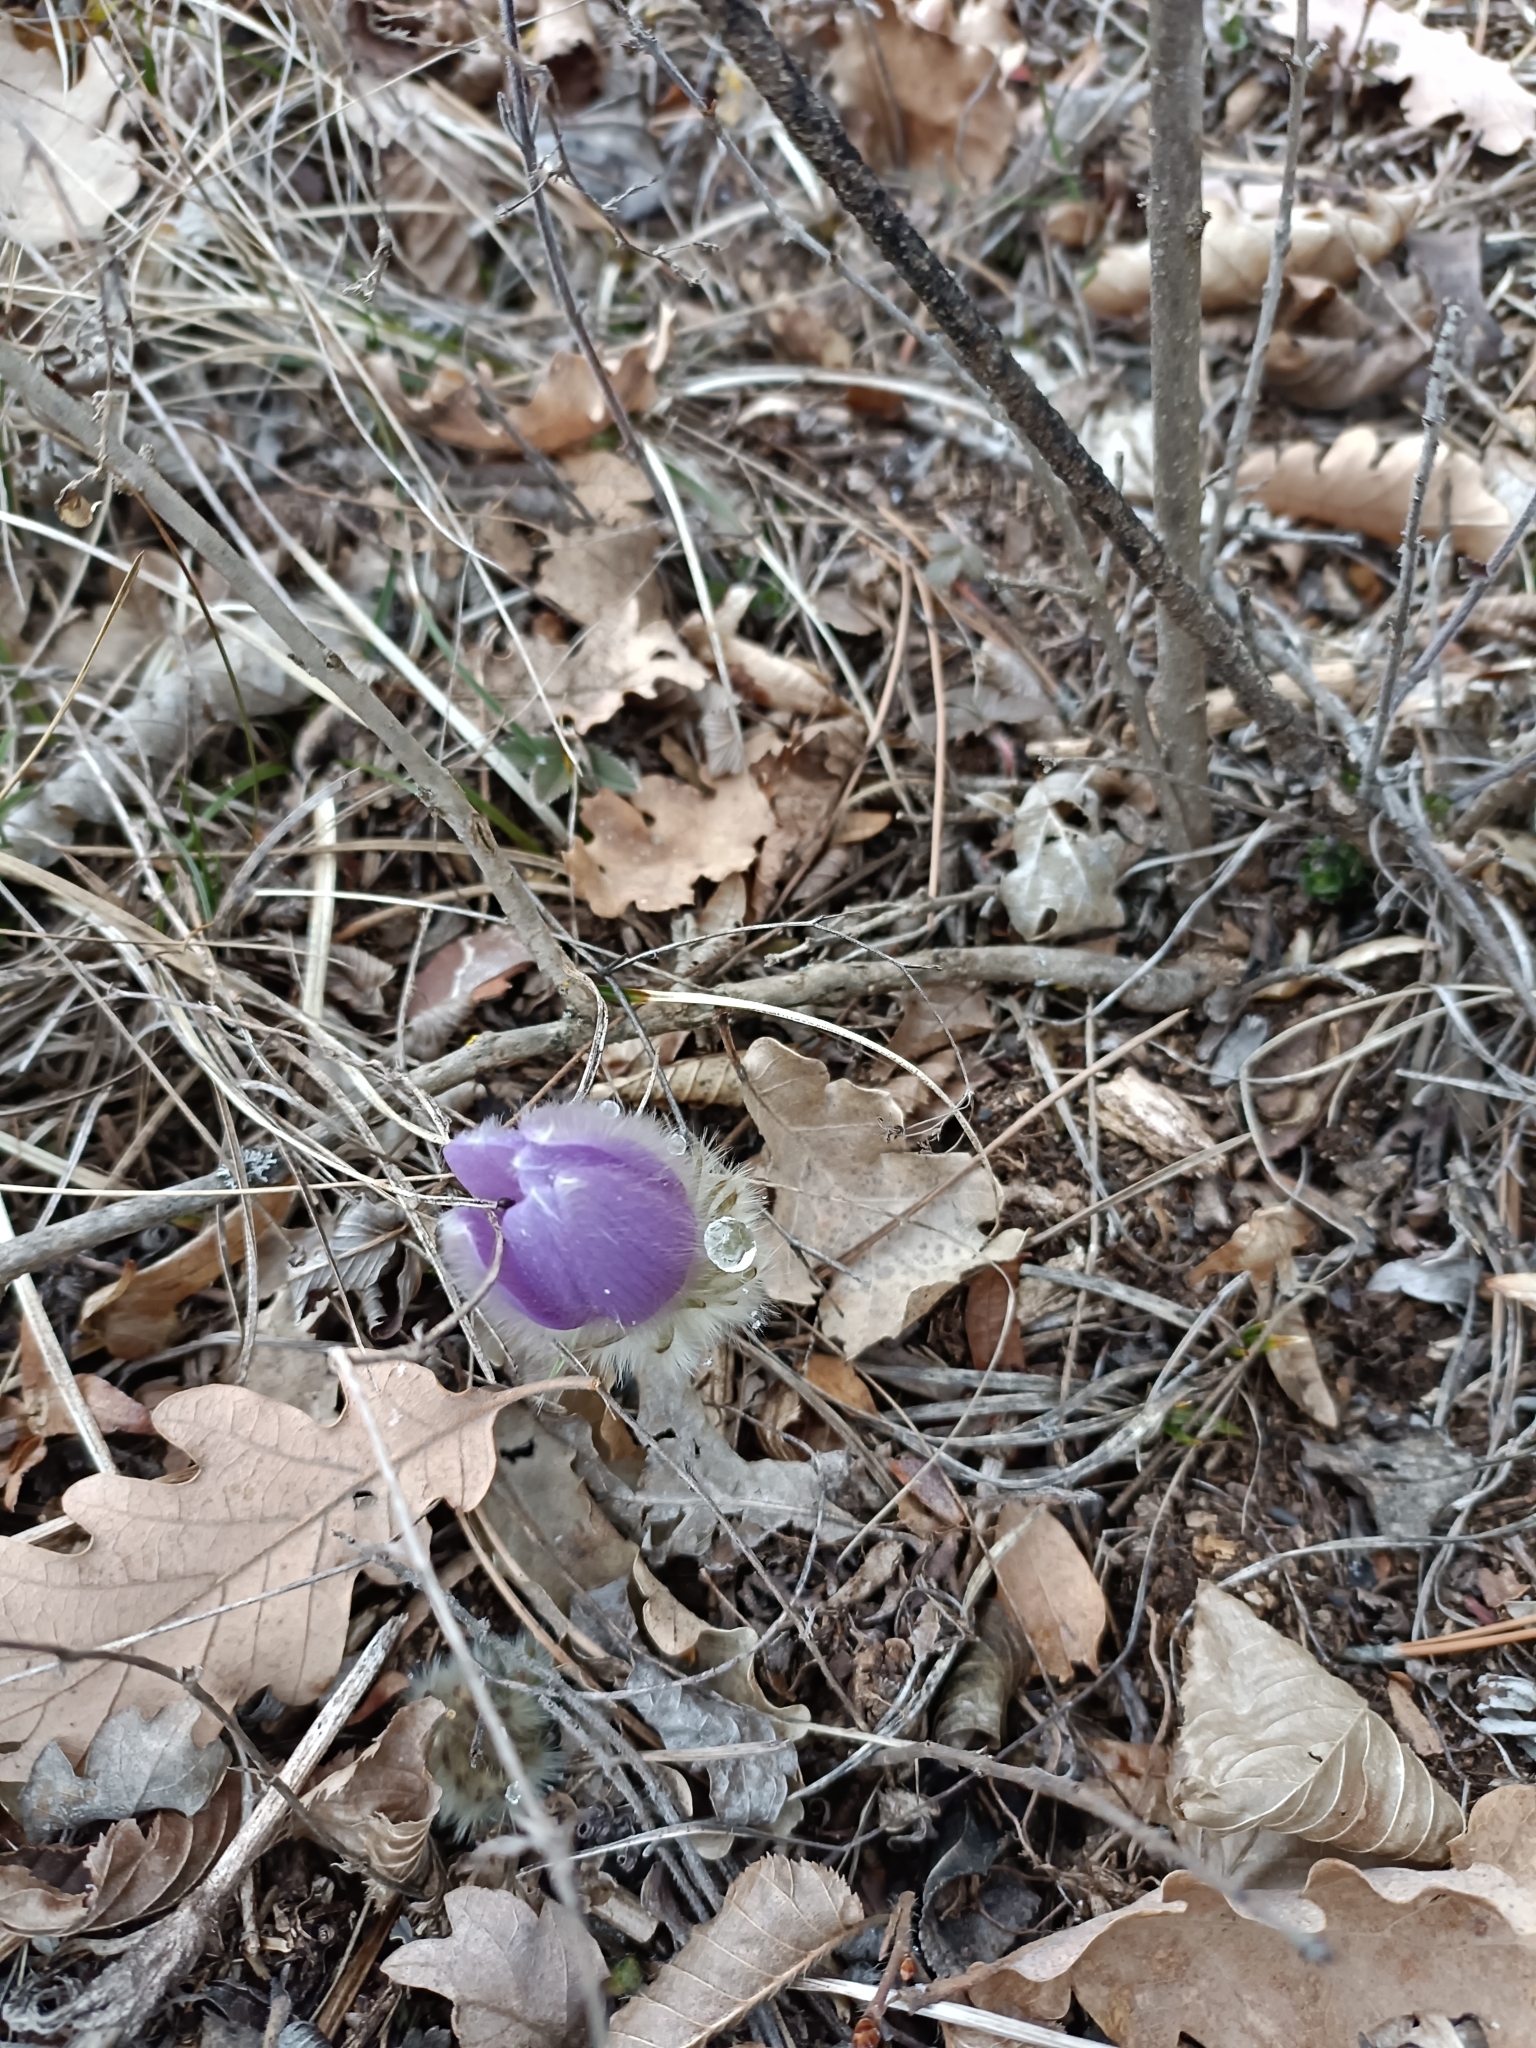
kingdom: Plantae
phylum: Tracheophyta
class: Magnoliopsida
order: Ranunculales
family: Ranunculaceae
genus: Pulsatilla
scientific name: Pulsatilla grandis
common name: Greater pasque flower
